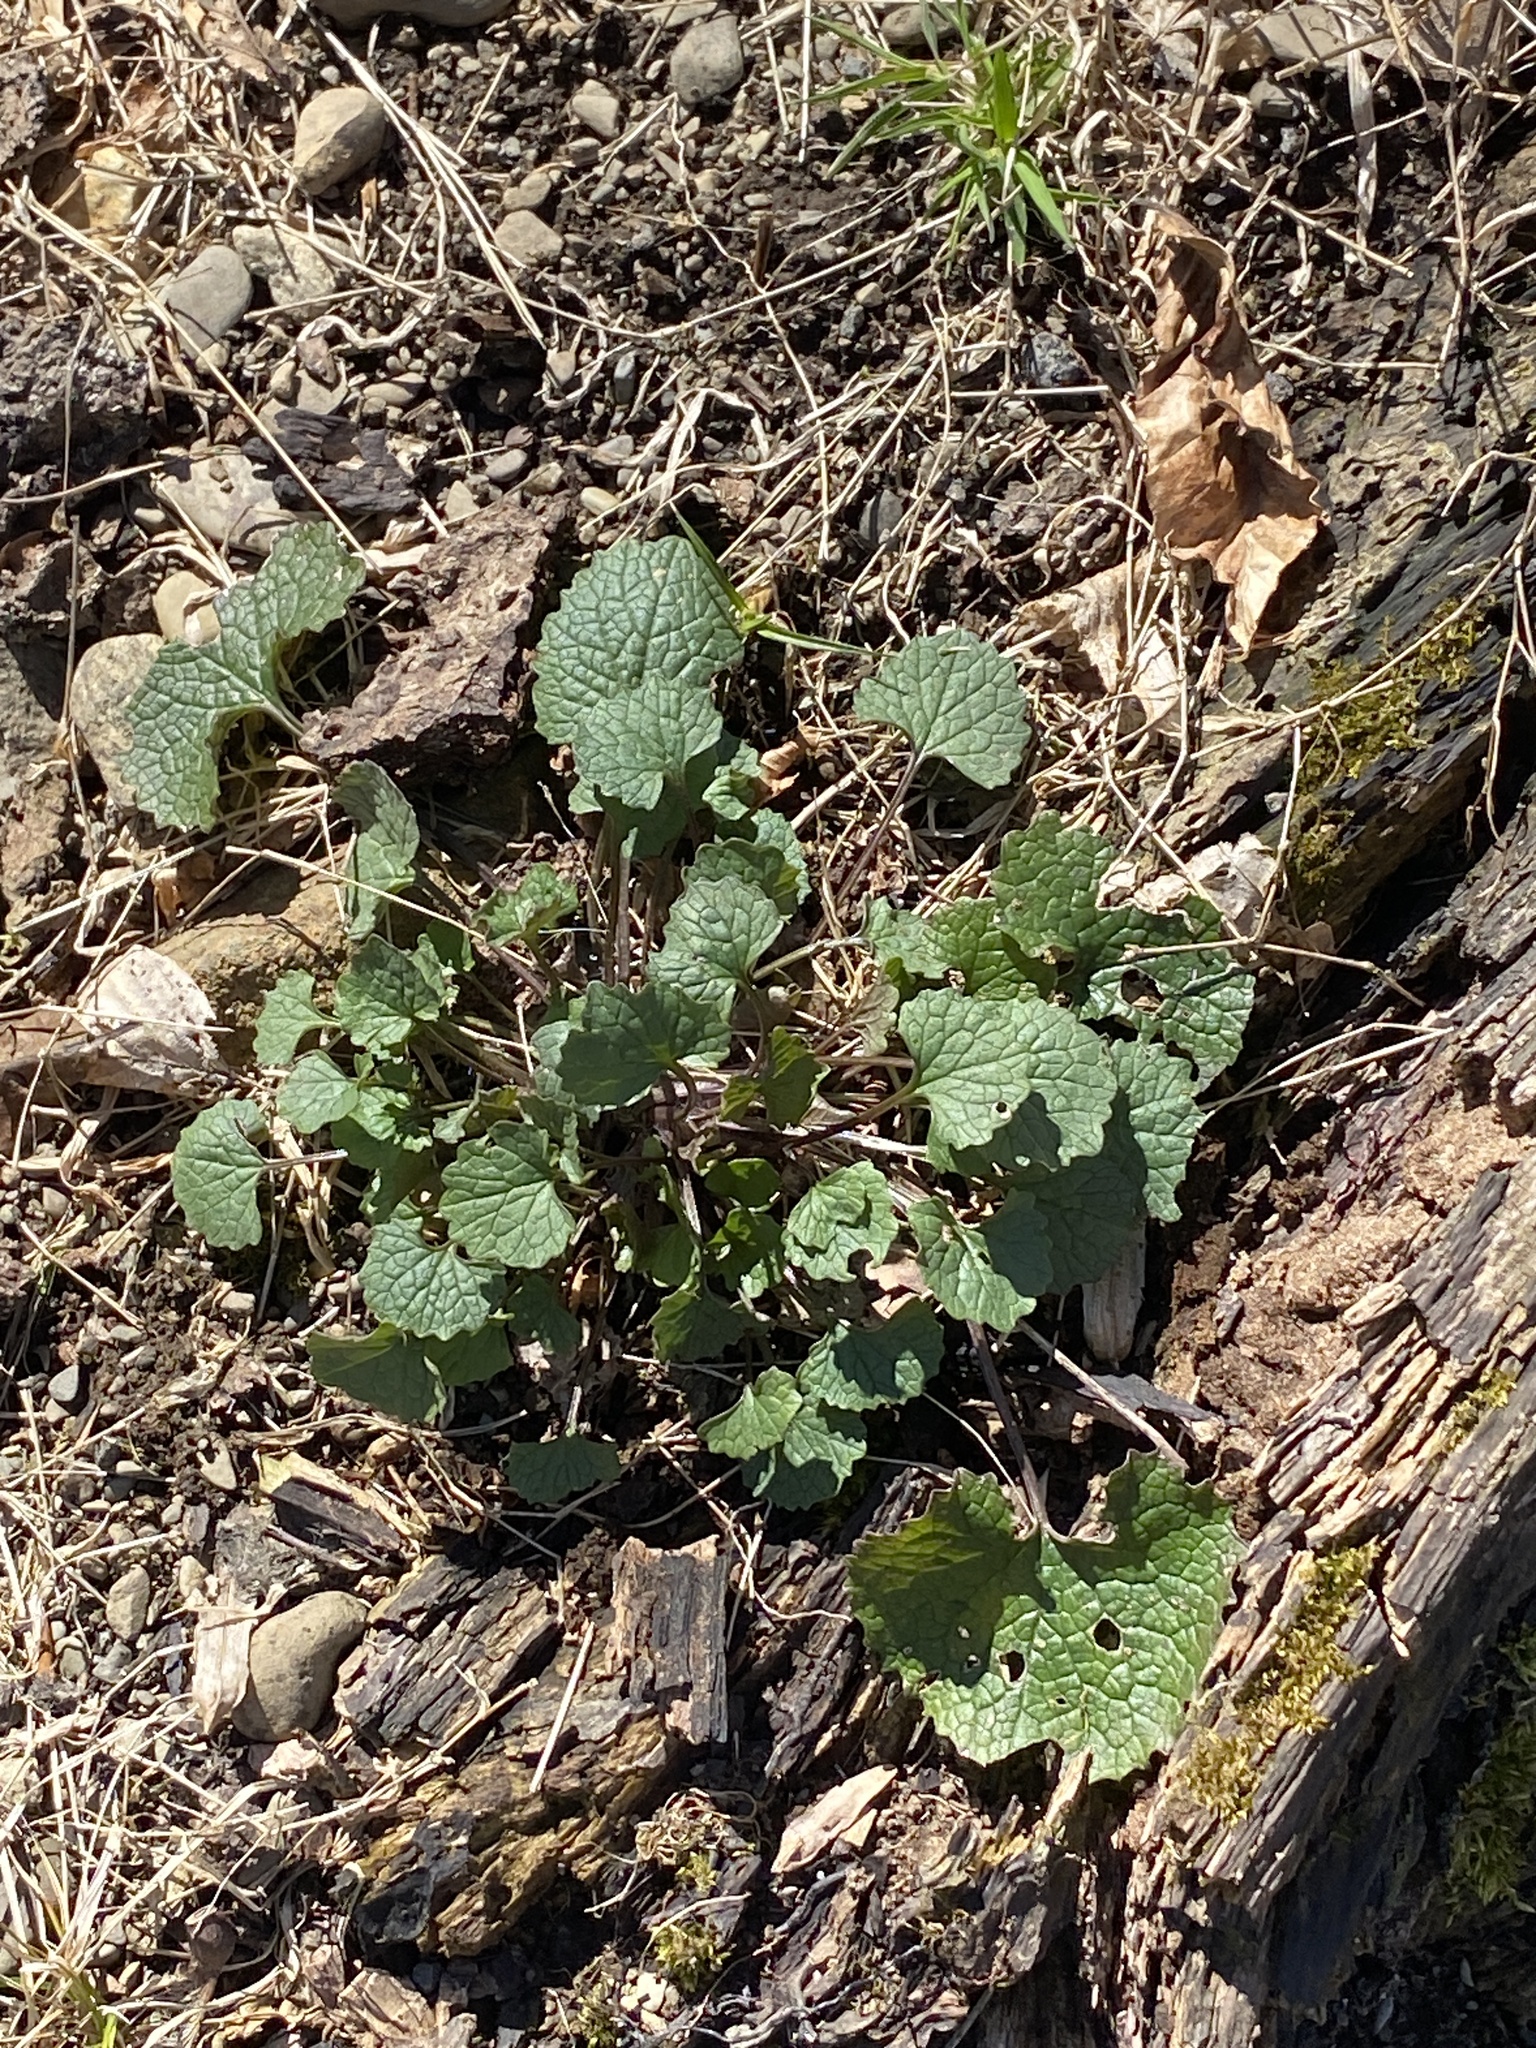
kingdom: Plantae
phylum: Tracheophyta
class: Magnoliopsida
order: Brassicales
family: Brassicaceae
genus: Alliaria
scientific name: Alliaria petiolata
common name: Garlic mustard
